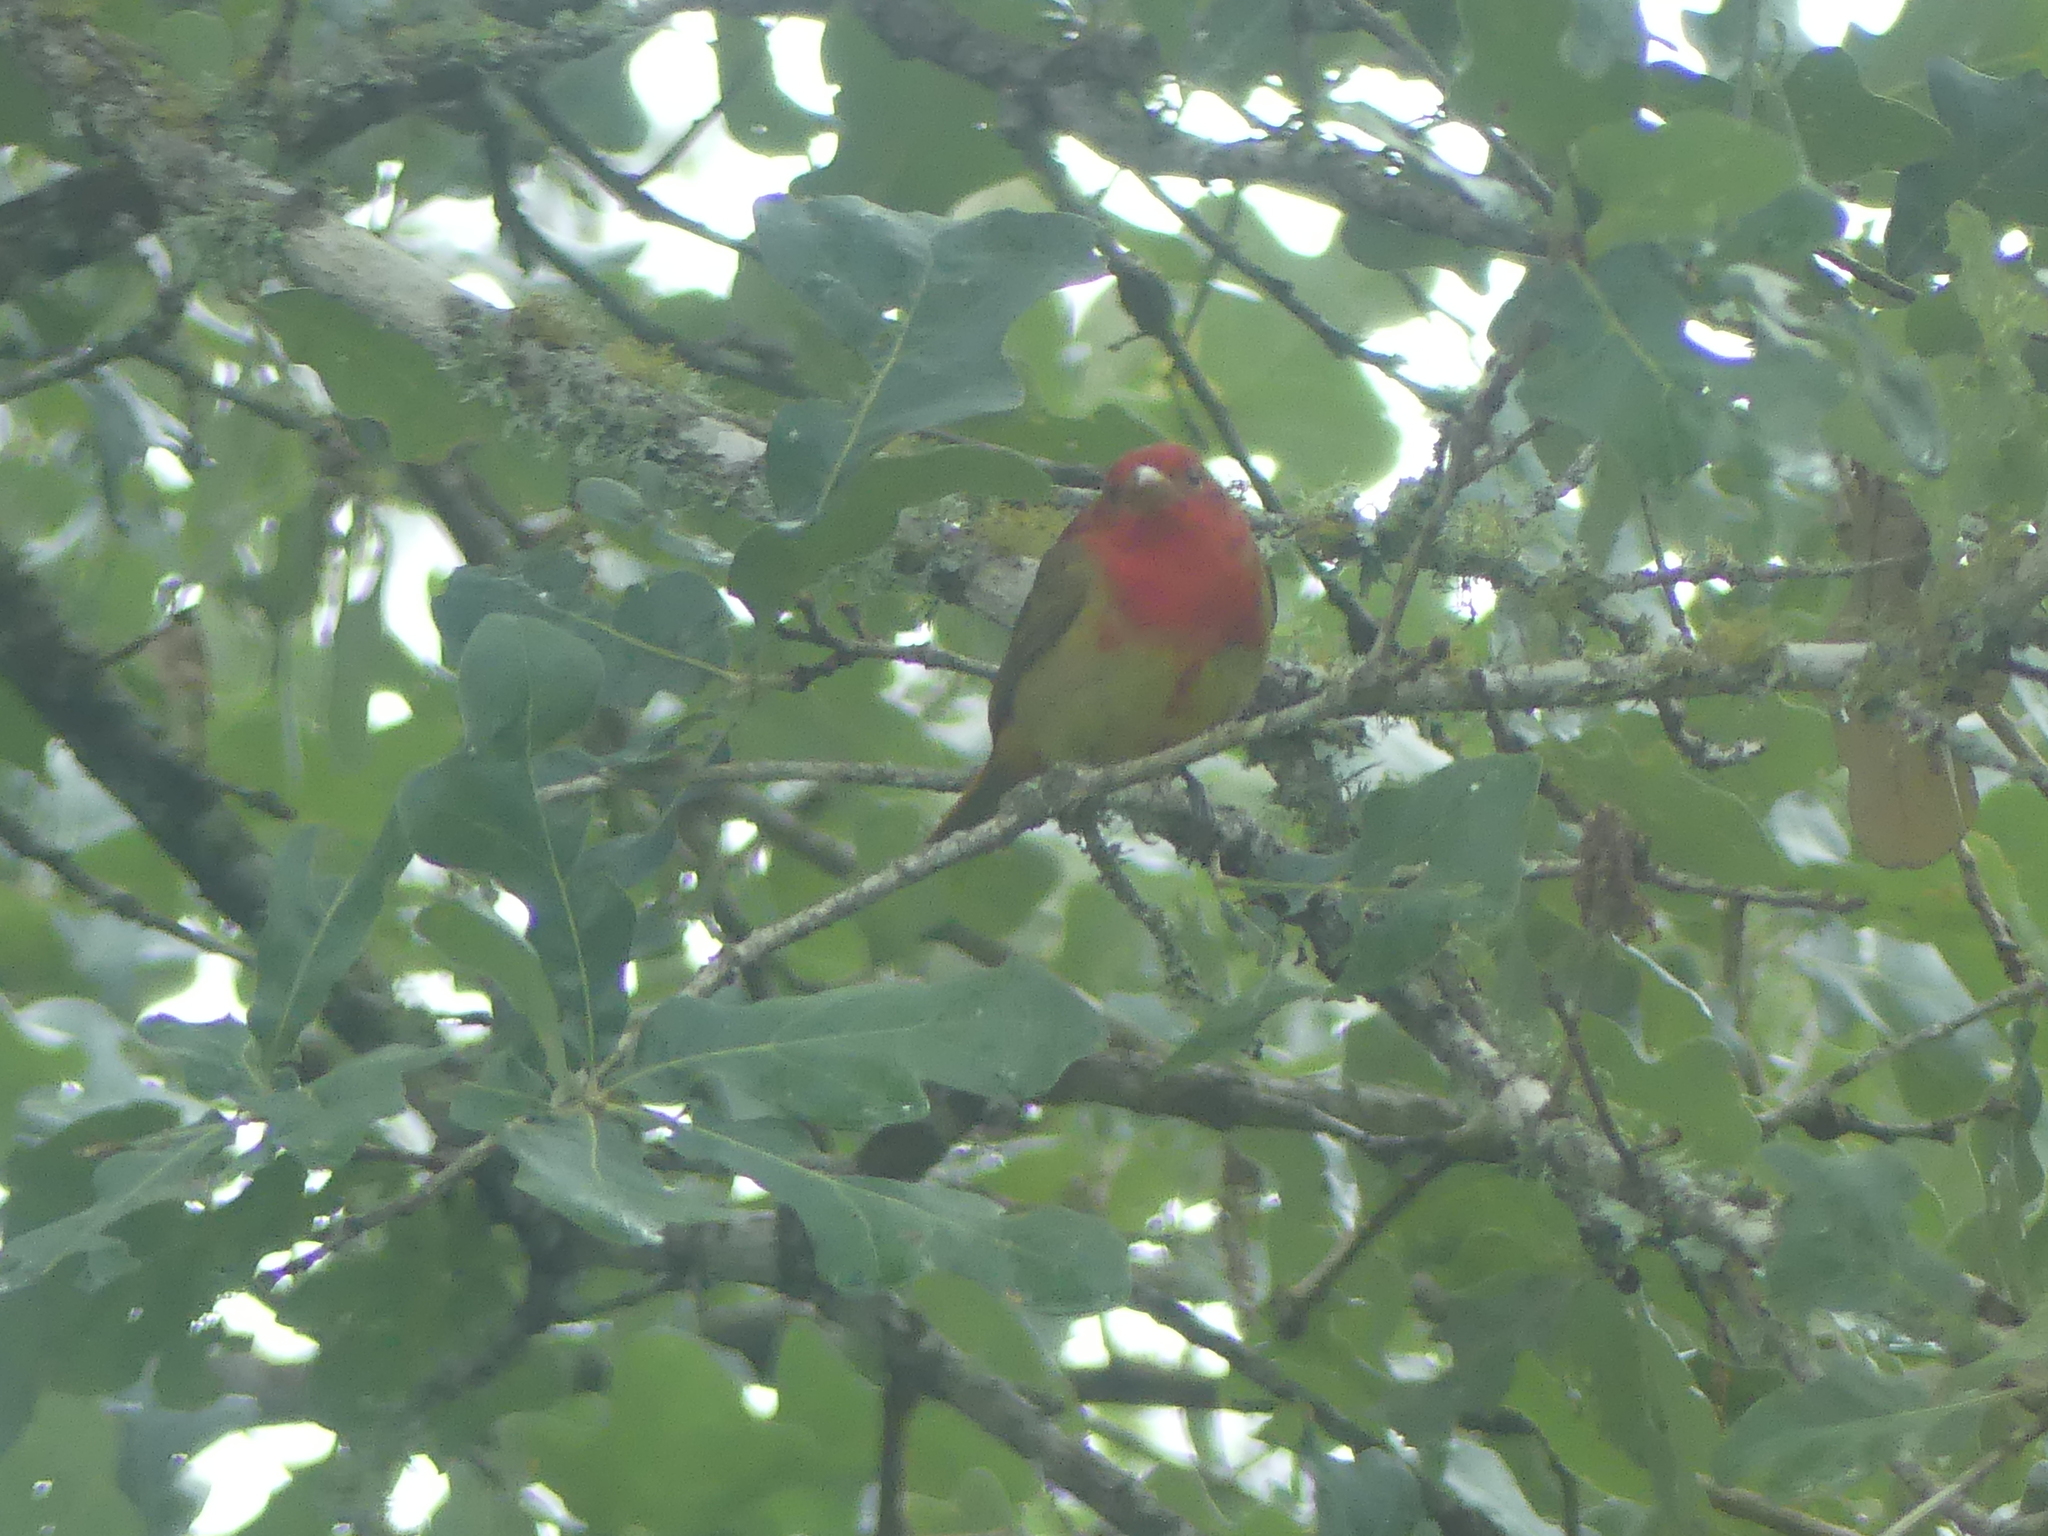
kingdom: Animalia
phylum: Chordata
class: Aves
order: Passeriformes
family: Cardinalidae
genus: Piranga
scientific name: Piranga rubra
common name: Summer tanager
